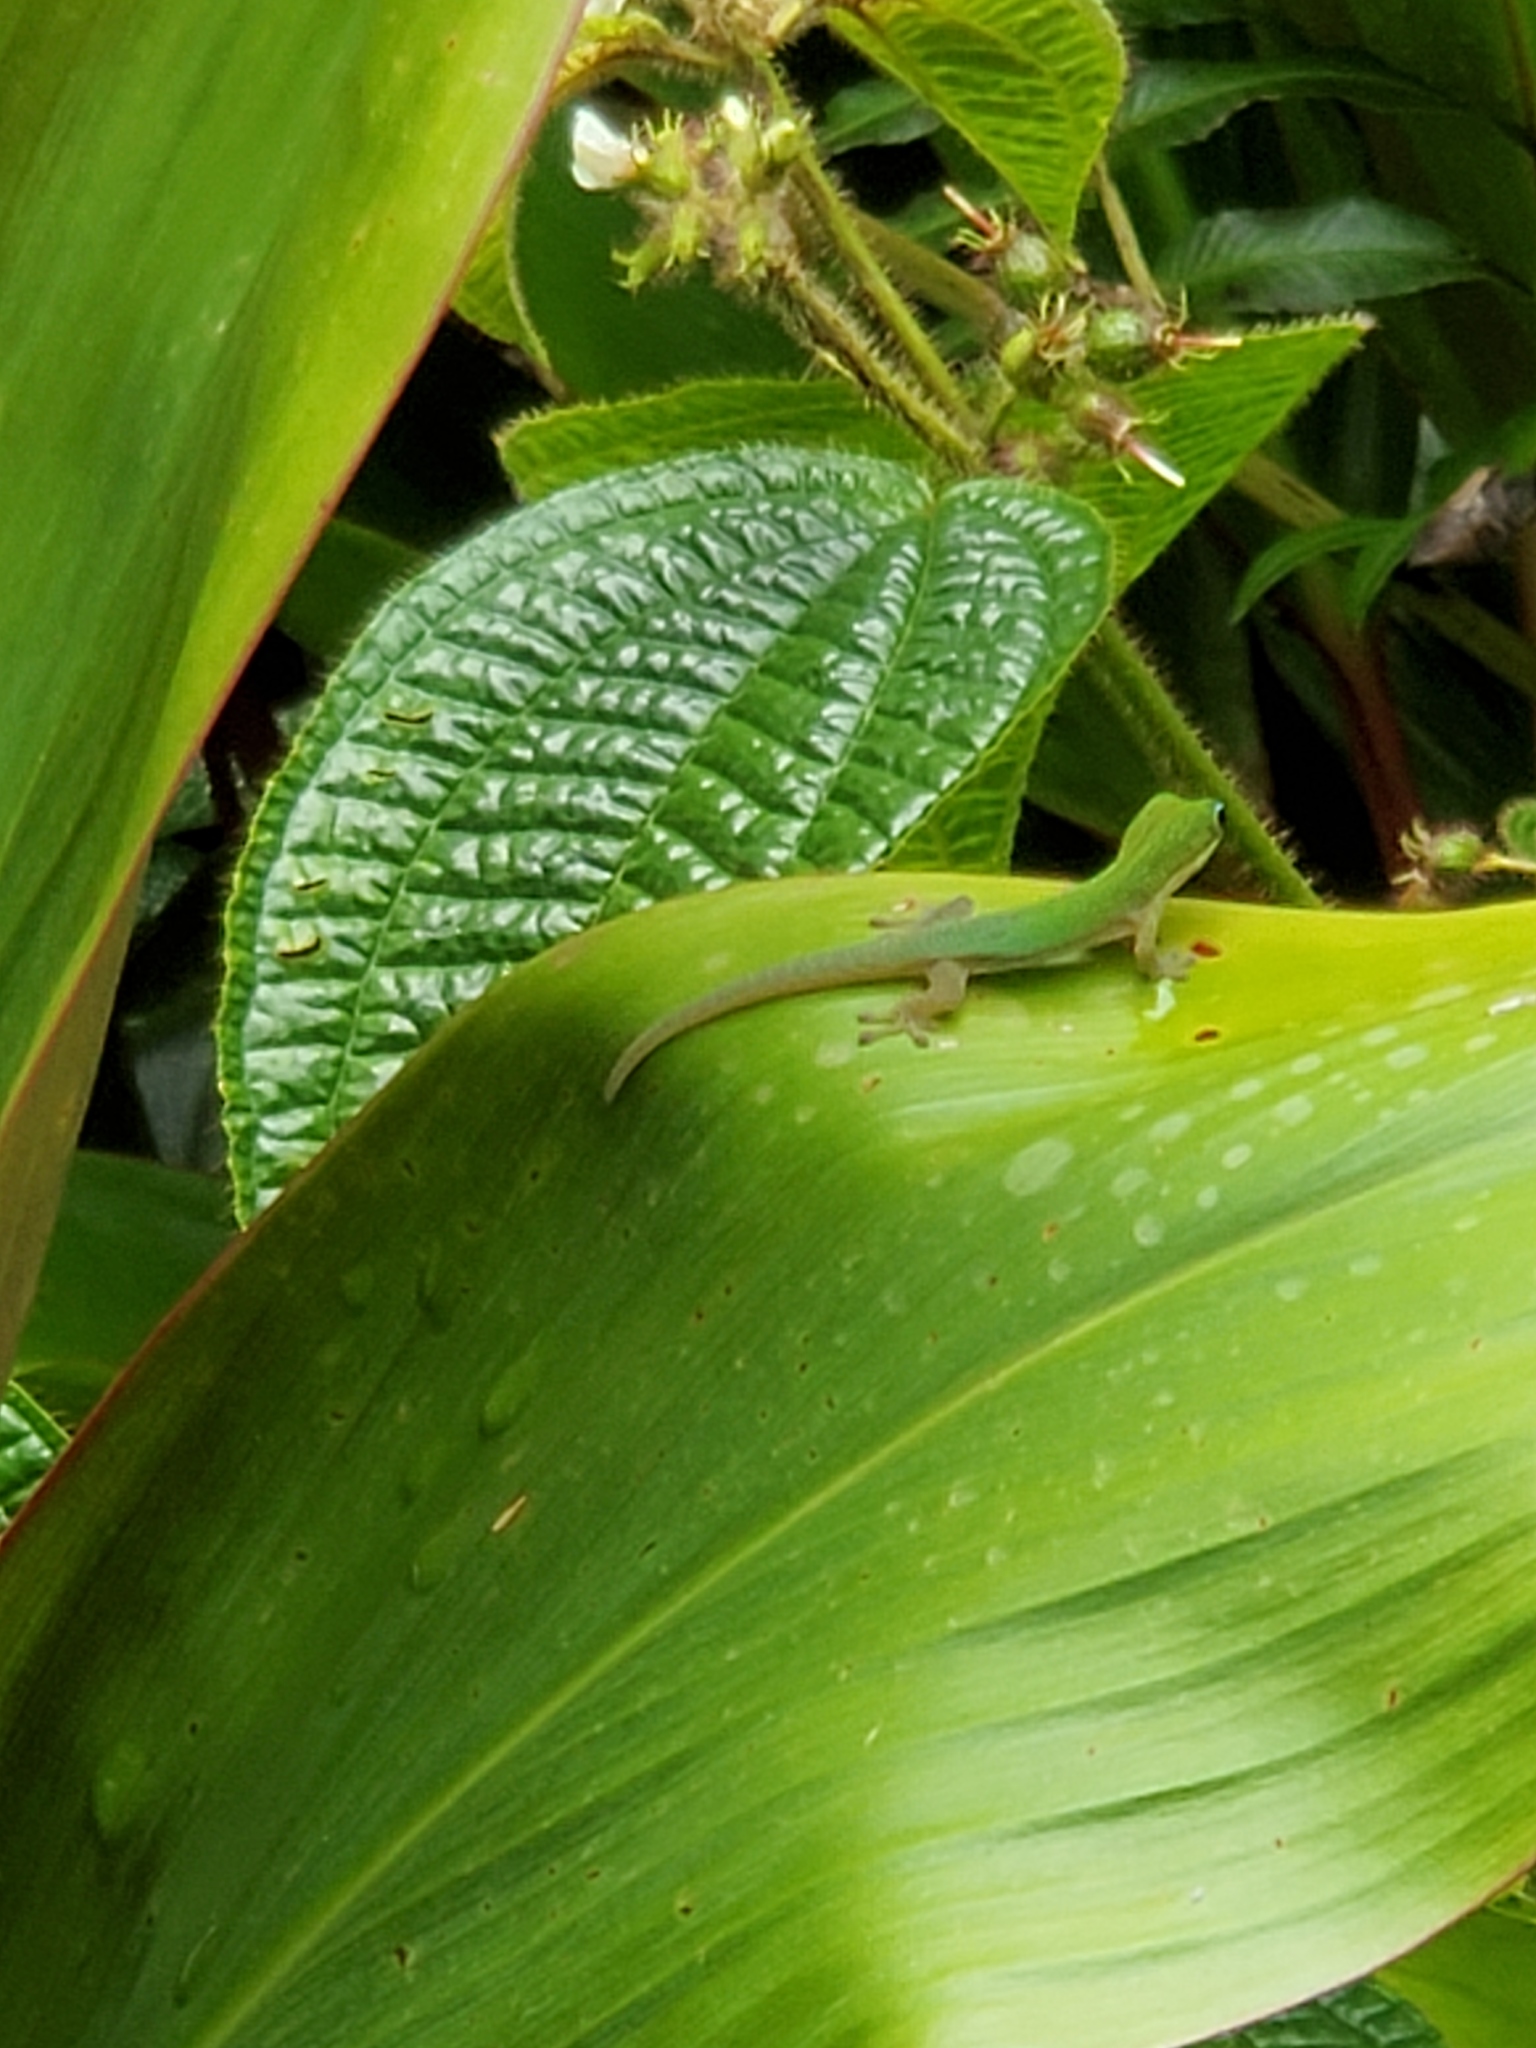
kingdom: Animalia
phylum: Chordata
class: Squamata
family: Gekkonidae
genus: Phelsuma
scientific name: Phelsuma laticauda
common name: Gold dust day gecko
